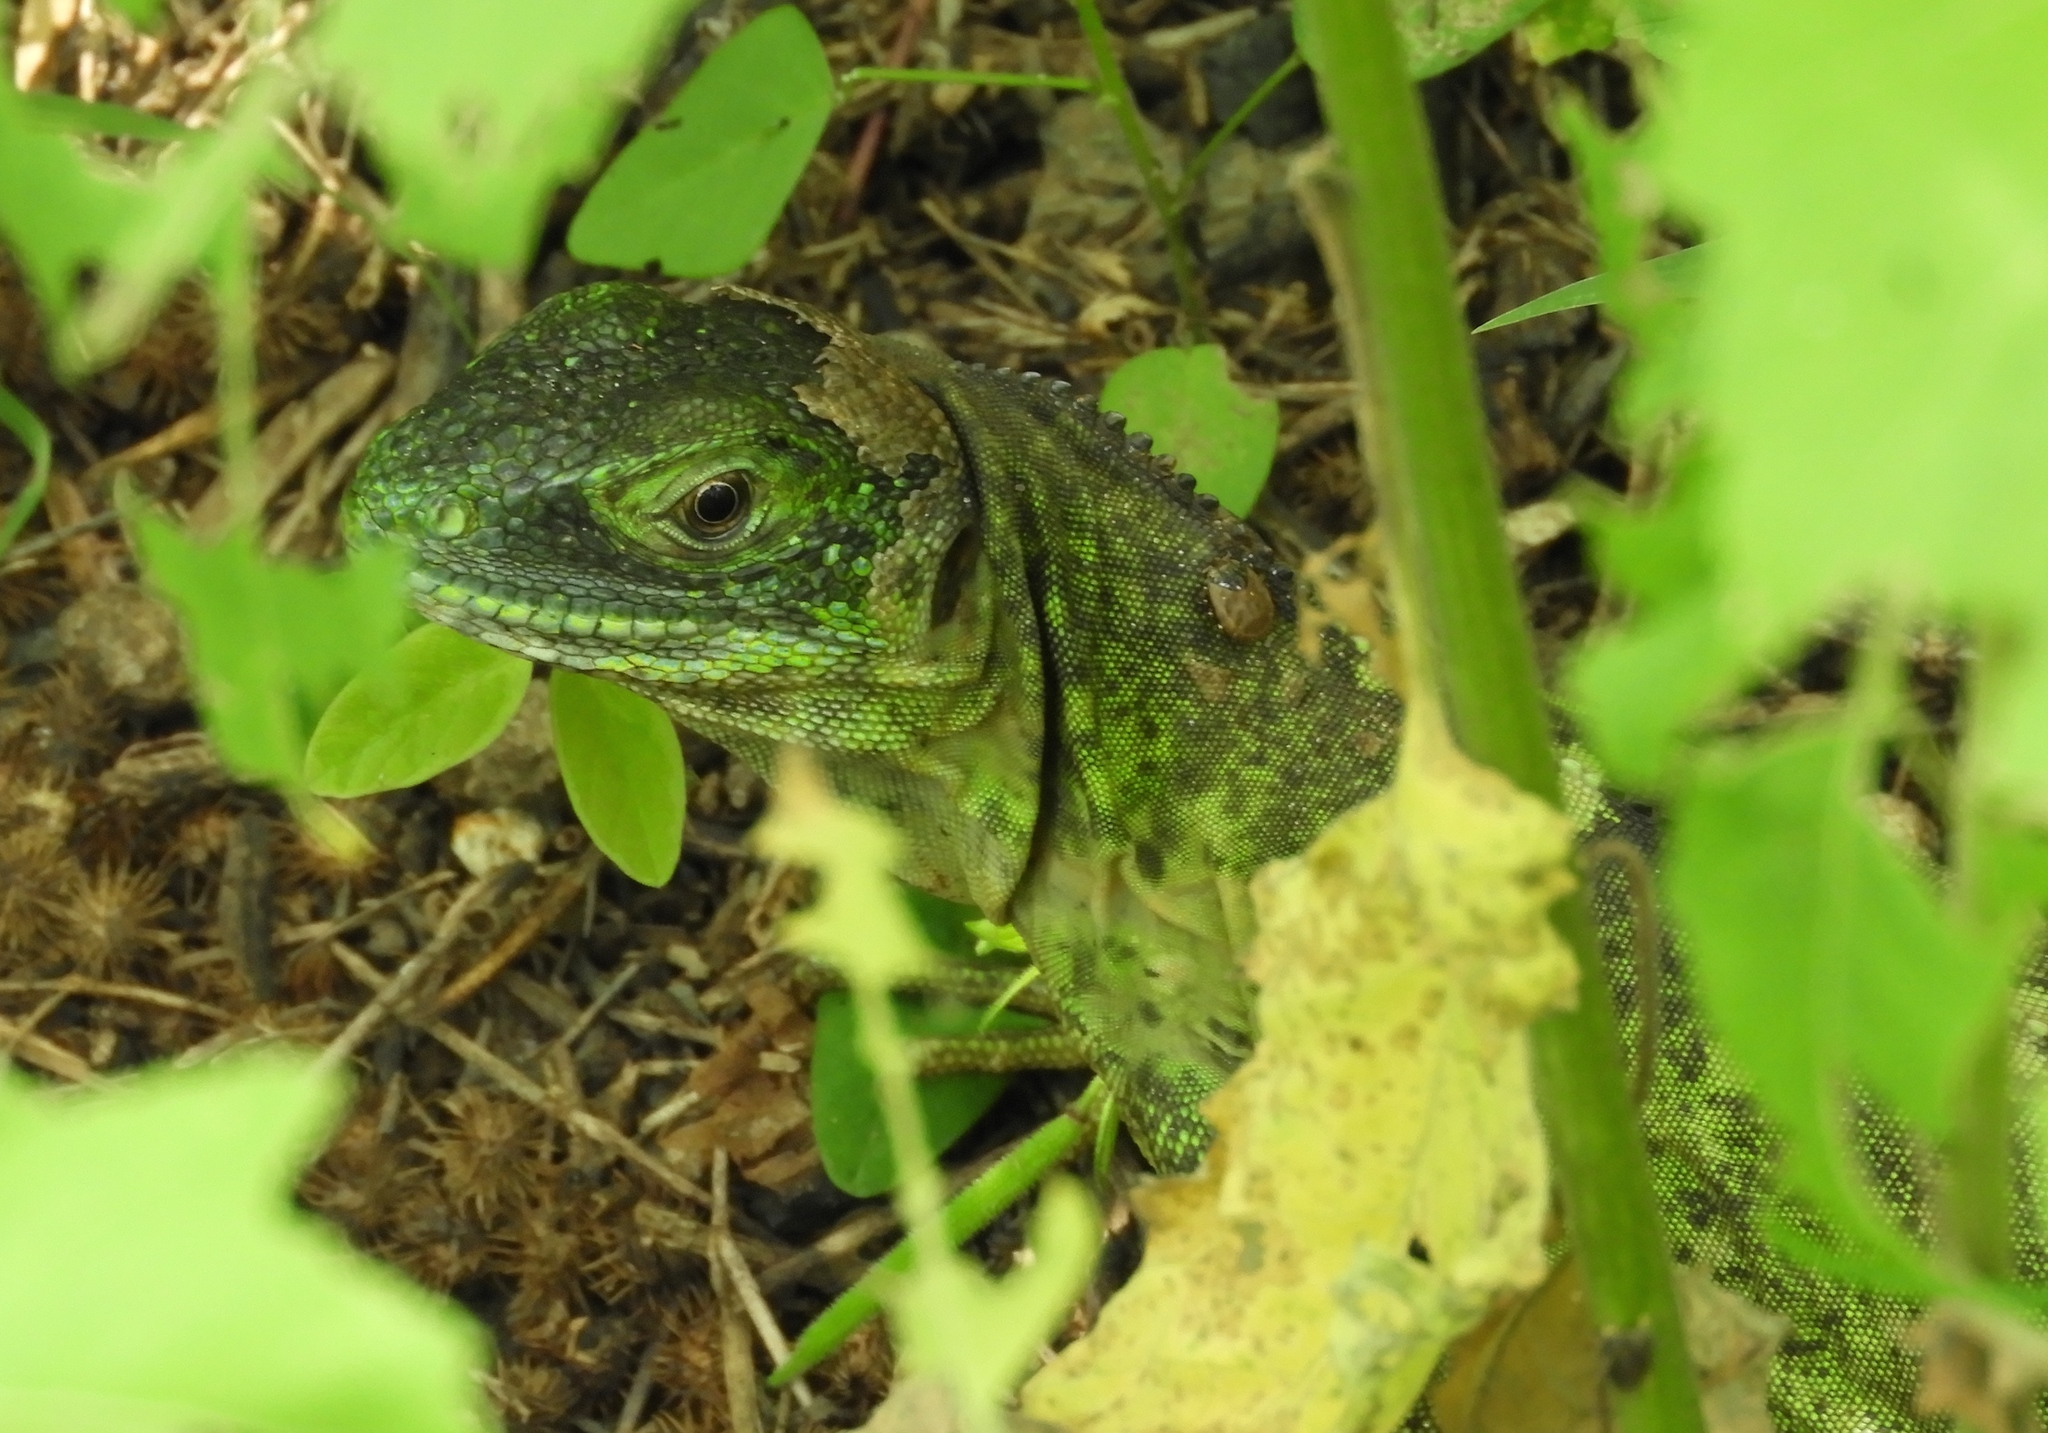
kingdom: Animalia
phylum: Chordata
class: Squamata
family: Iguanidae
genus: Ctenosaura
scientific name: Ctenosaura pectinata
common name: Guerreran spiny-tailed iguana
